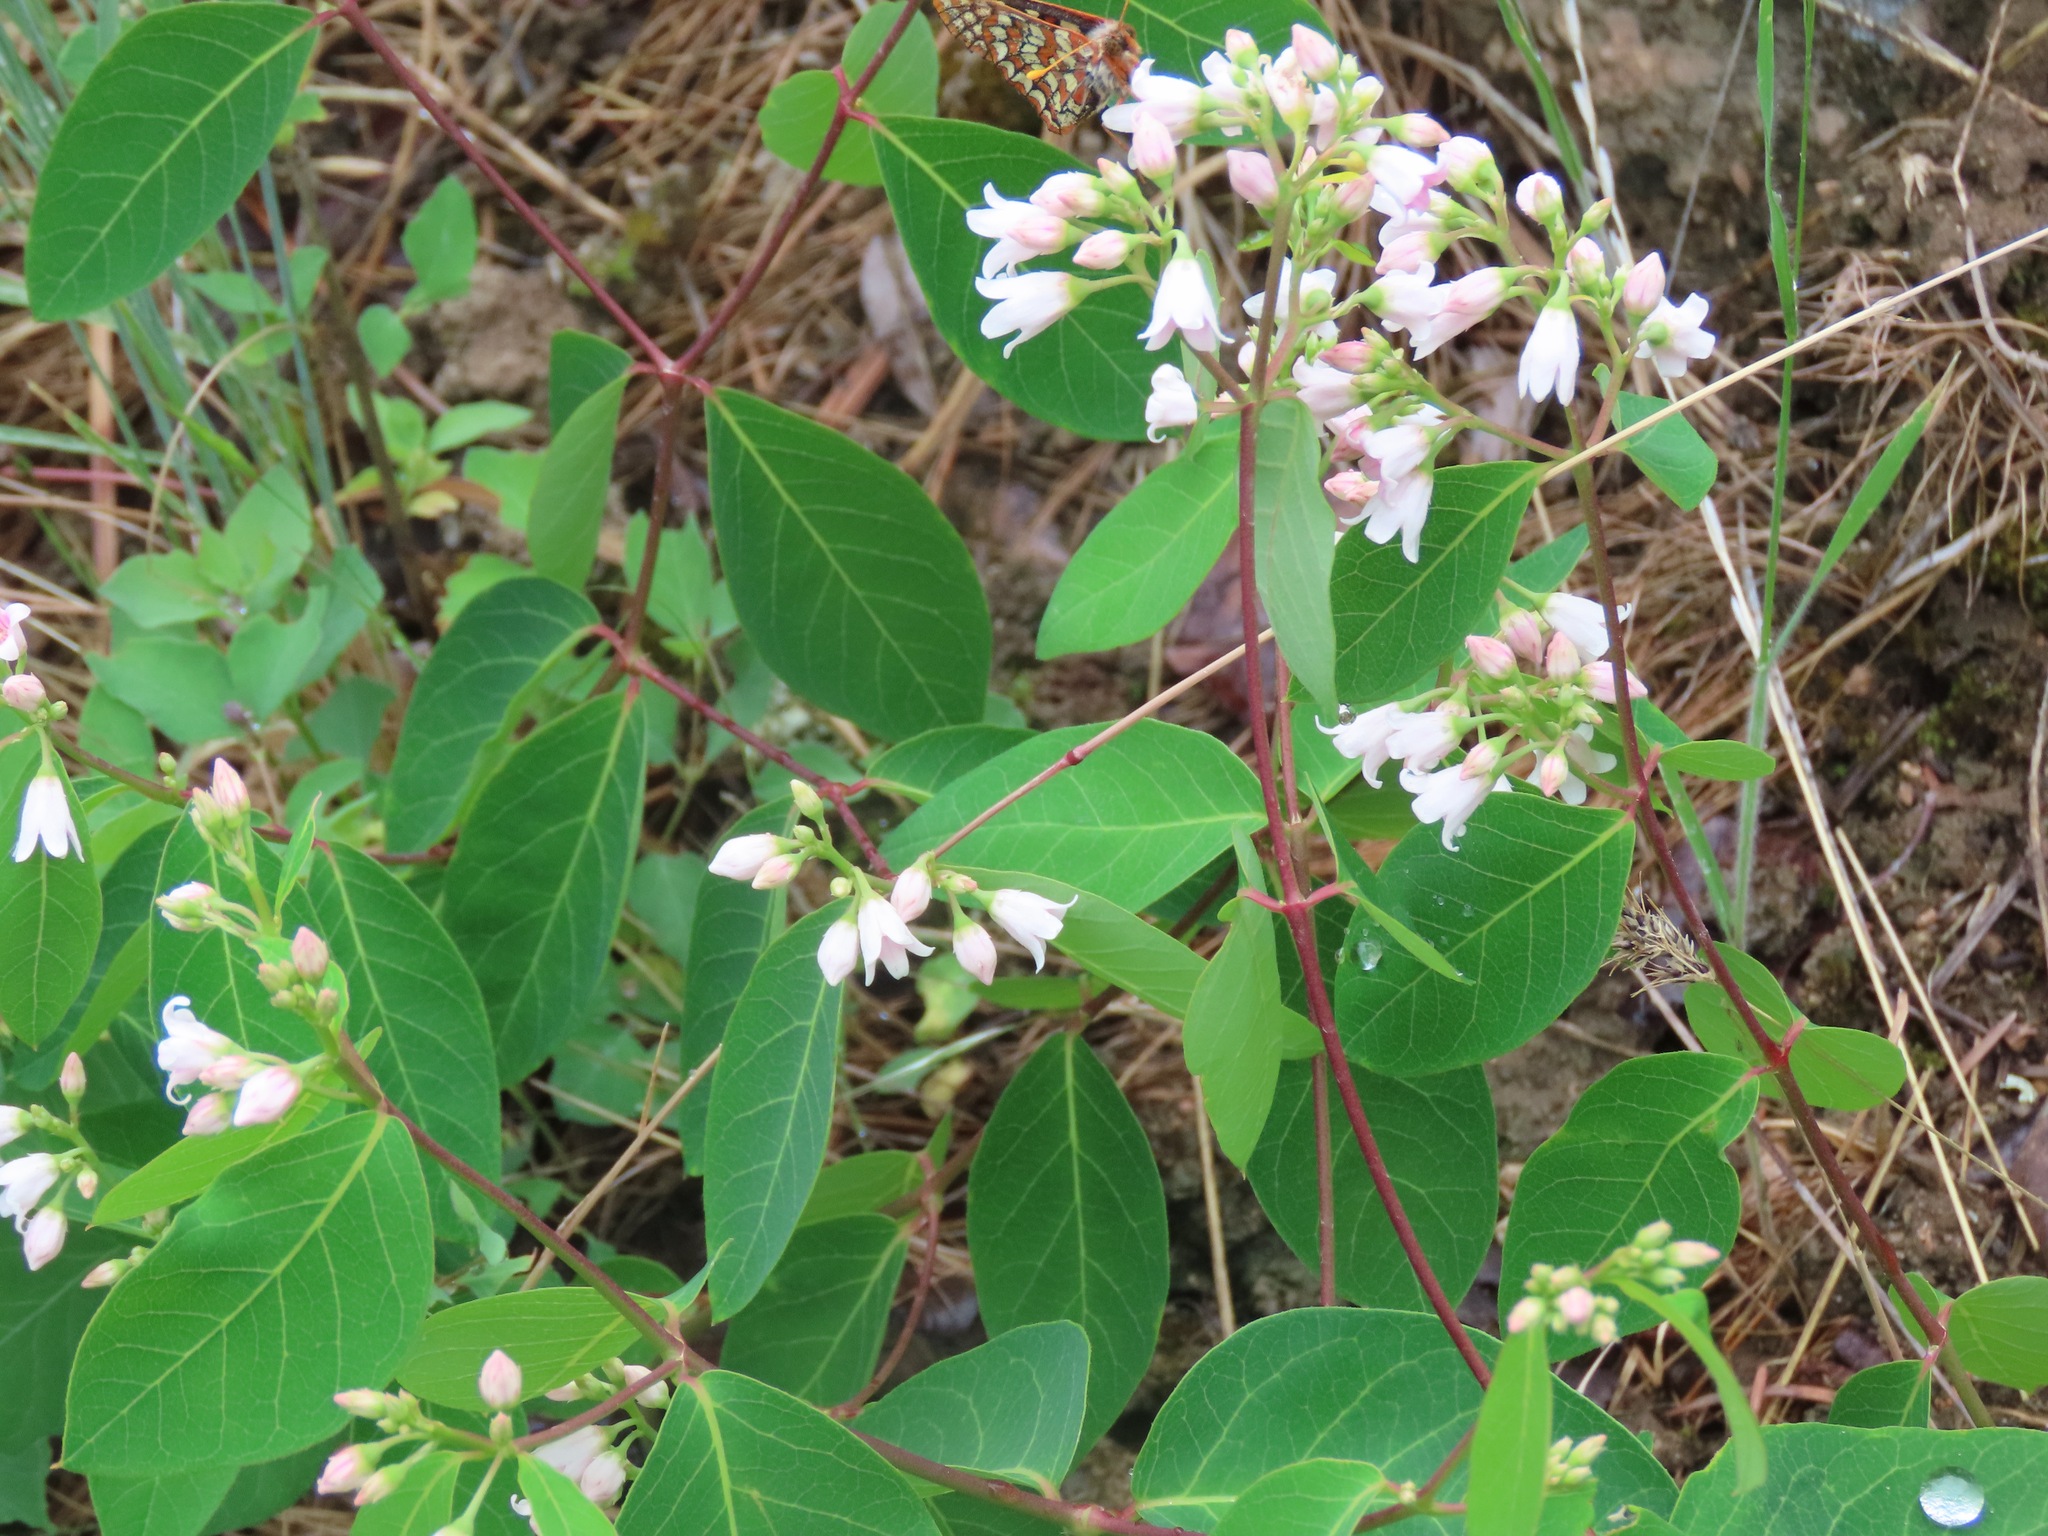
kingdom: Plantae
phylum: Tracheophyta
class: Magnoliopsida
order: Gentianales
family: Apocynaceae
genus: Apocynum
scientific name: Apocynum androsaemifolium
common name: Spreading dogbane
